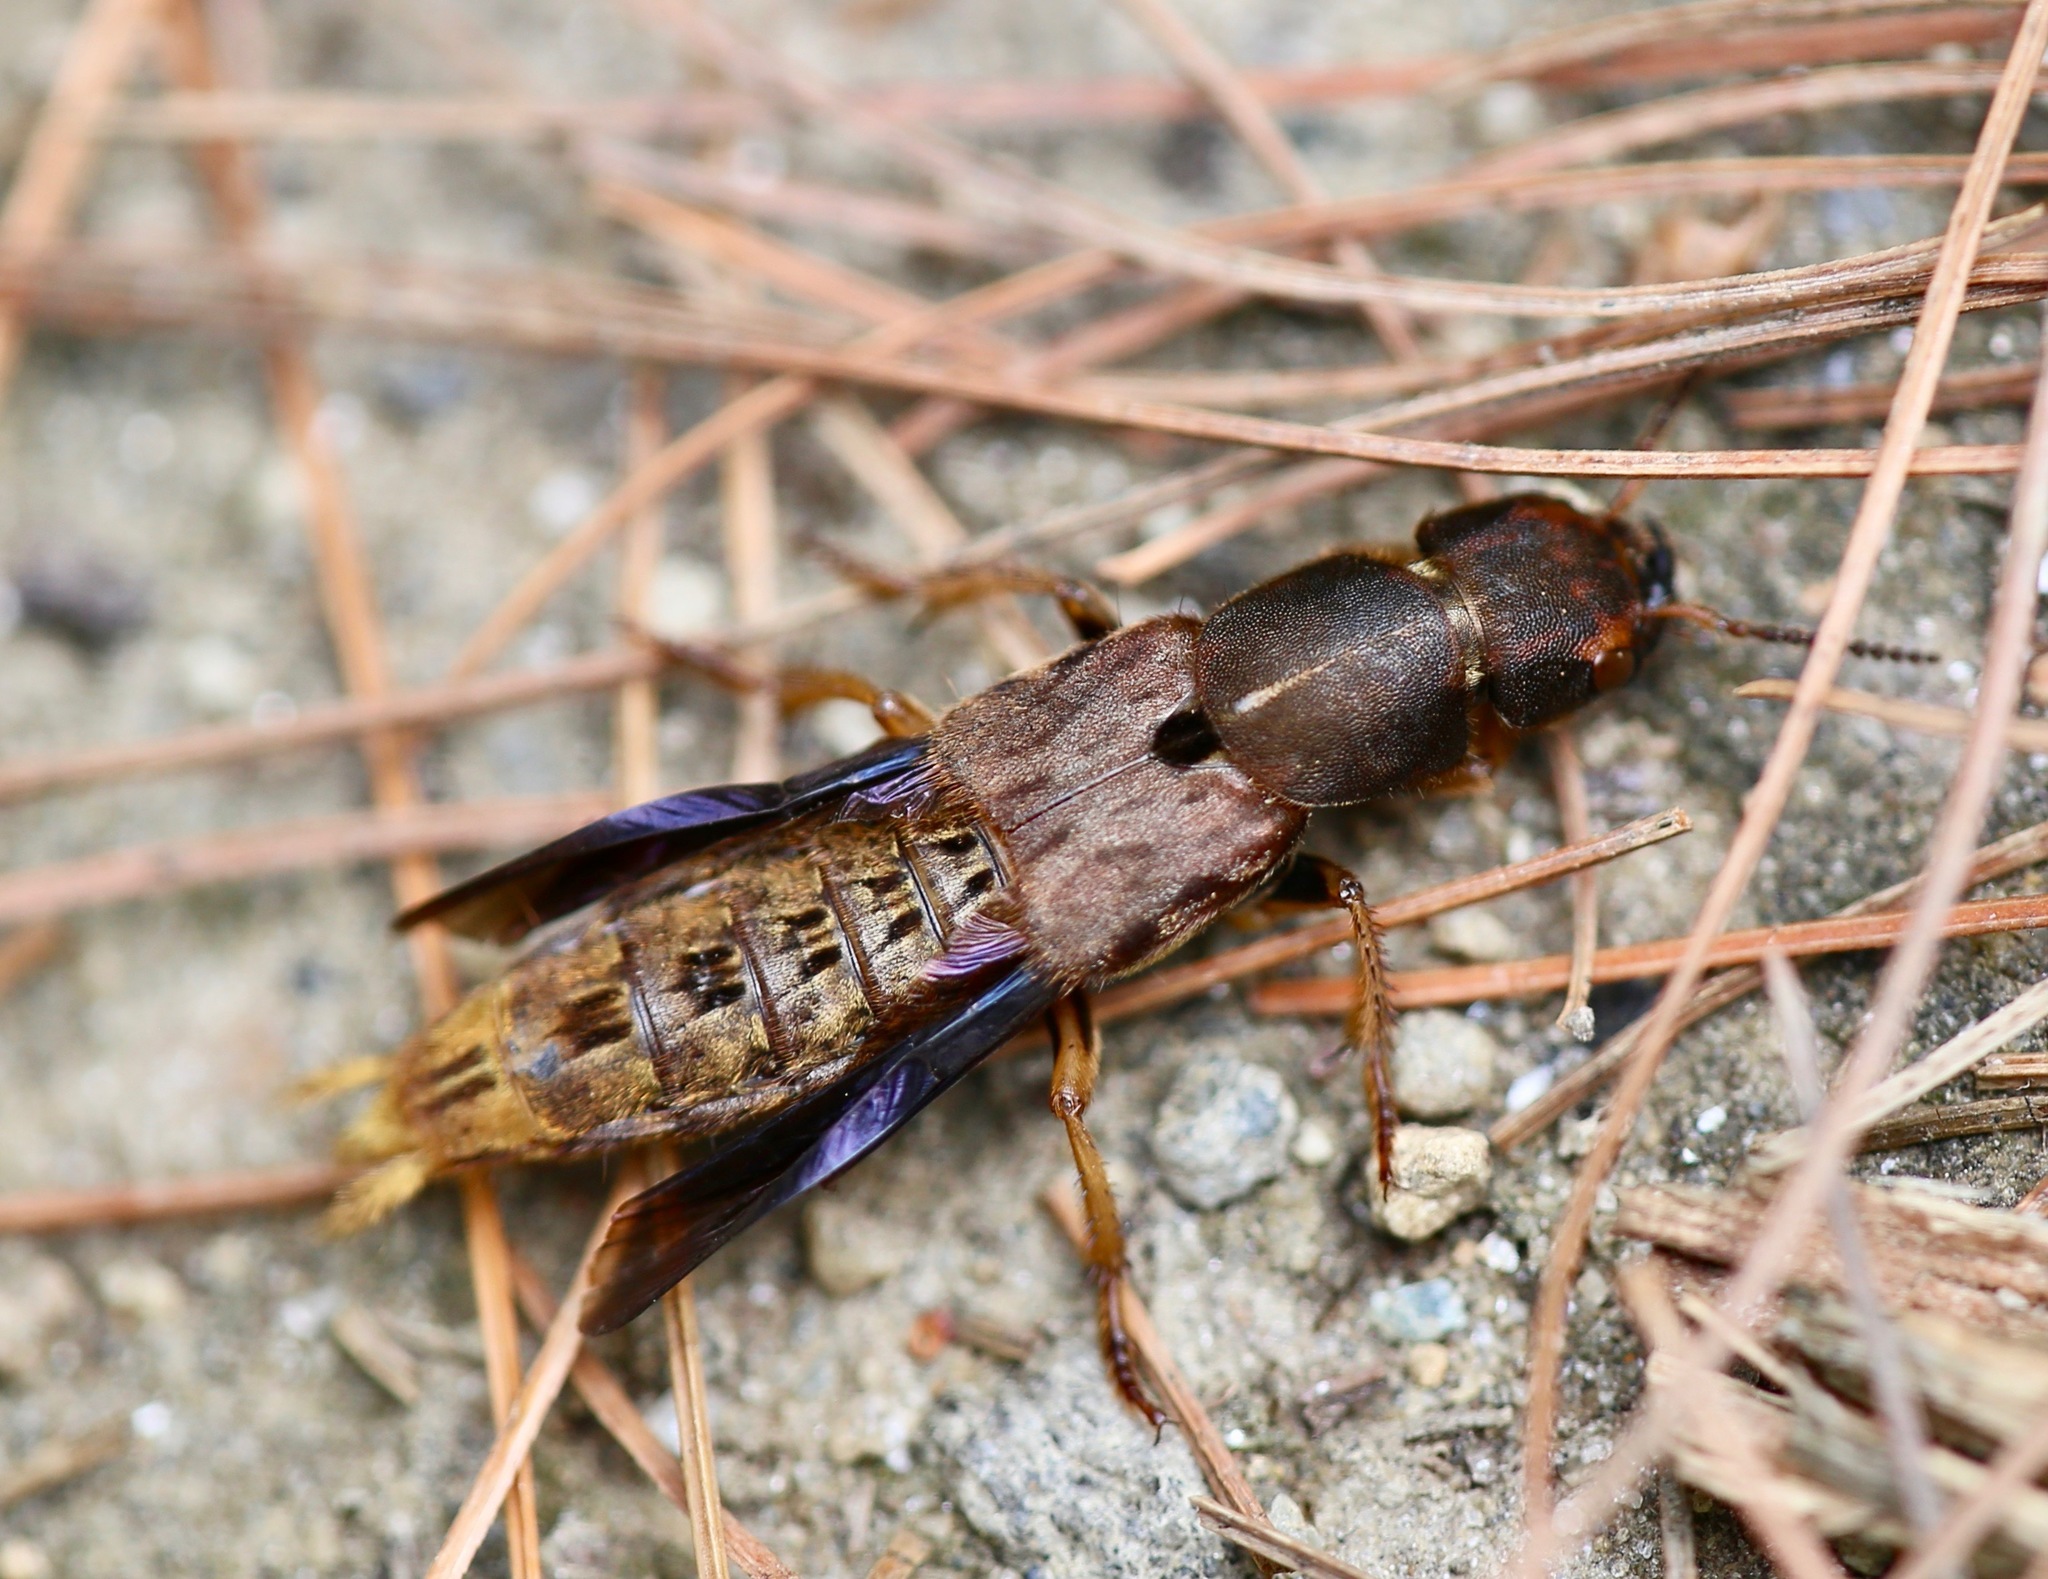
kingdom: Animalia
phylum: Arthropoda
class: Insecta
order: Coleoptera
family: Staphylinidae
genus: Platydracus
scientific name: Platydracus maculosus
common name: Brown rove beetle
